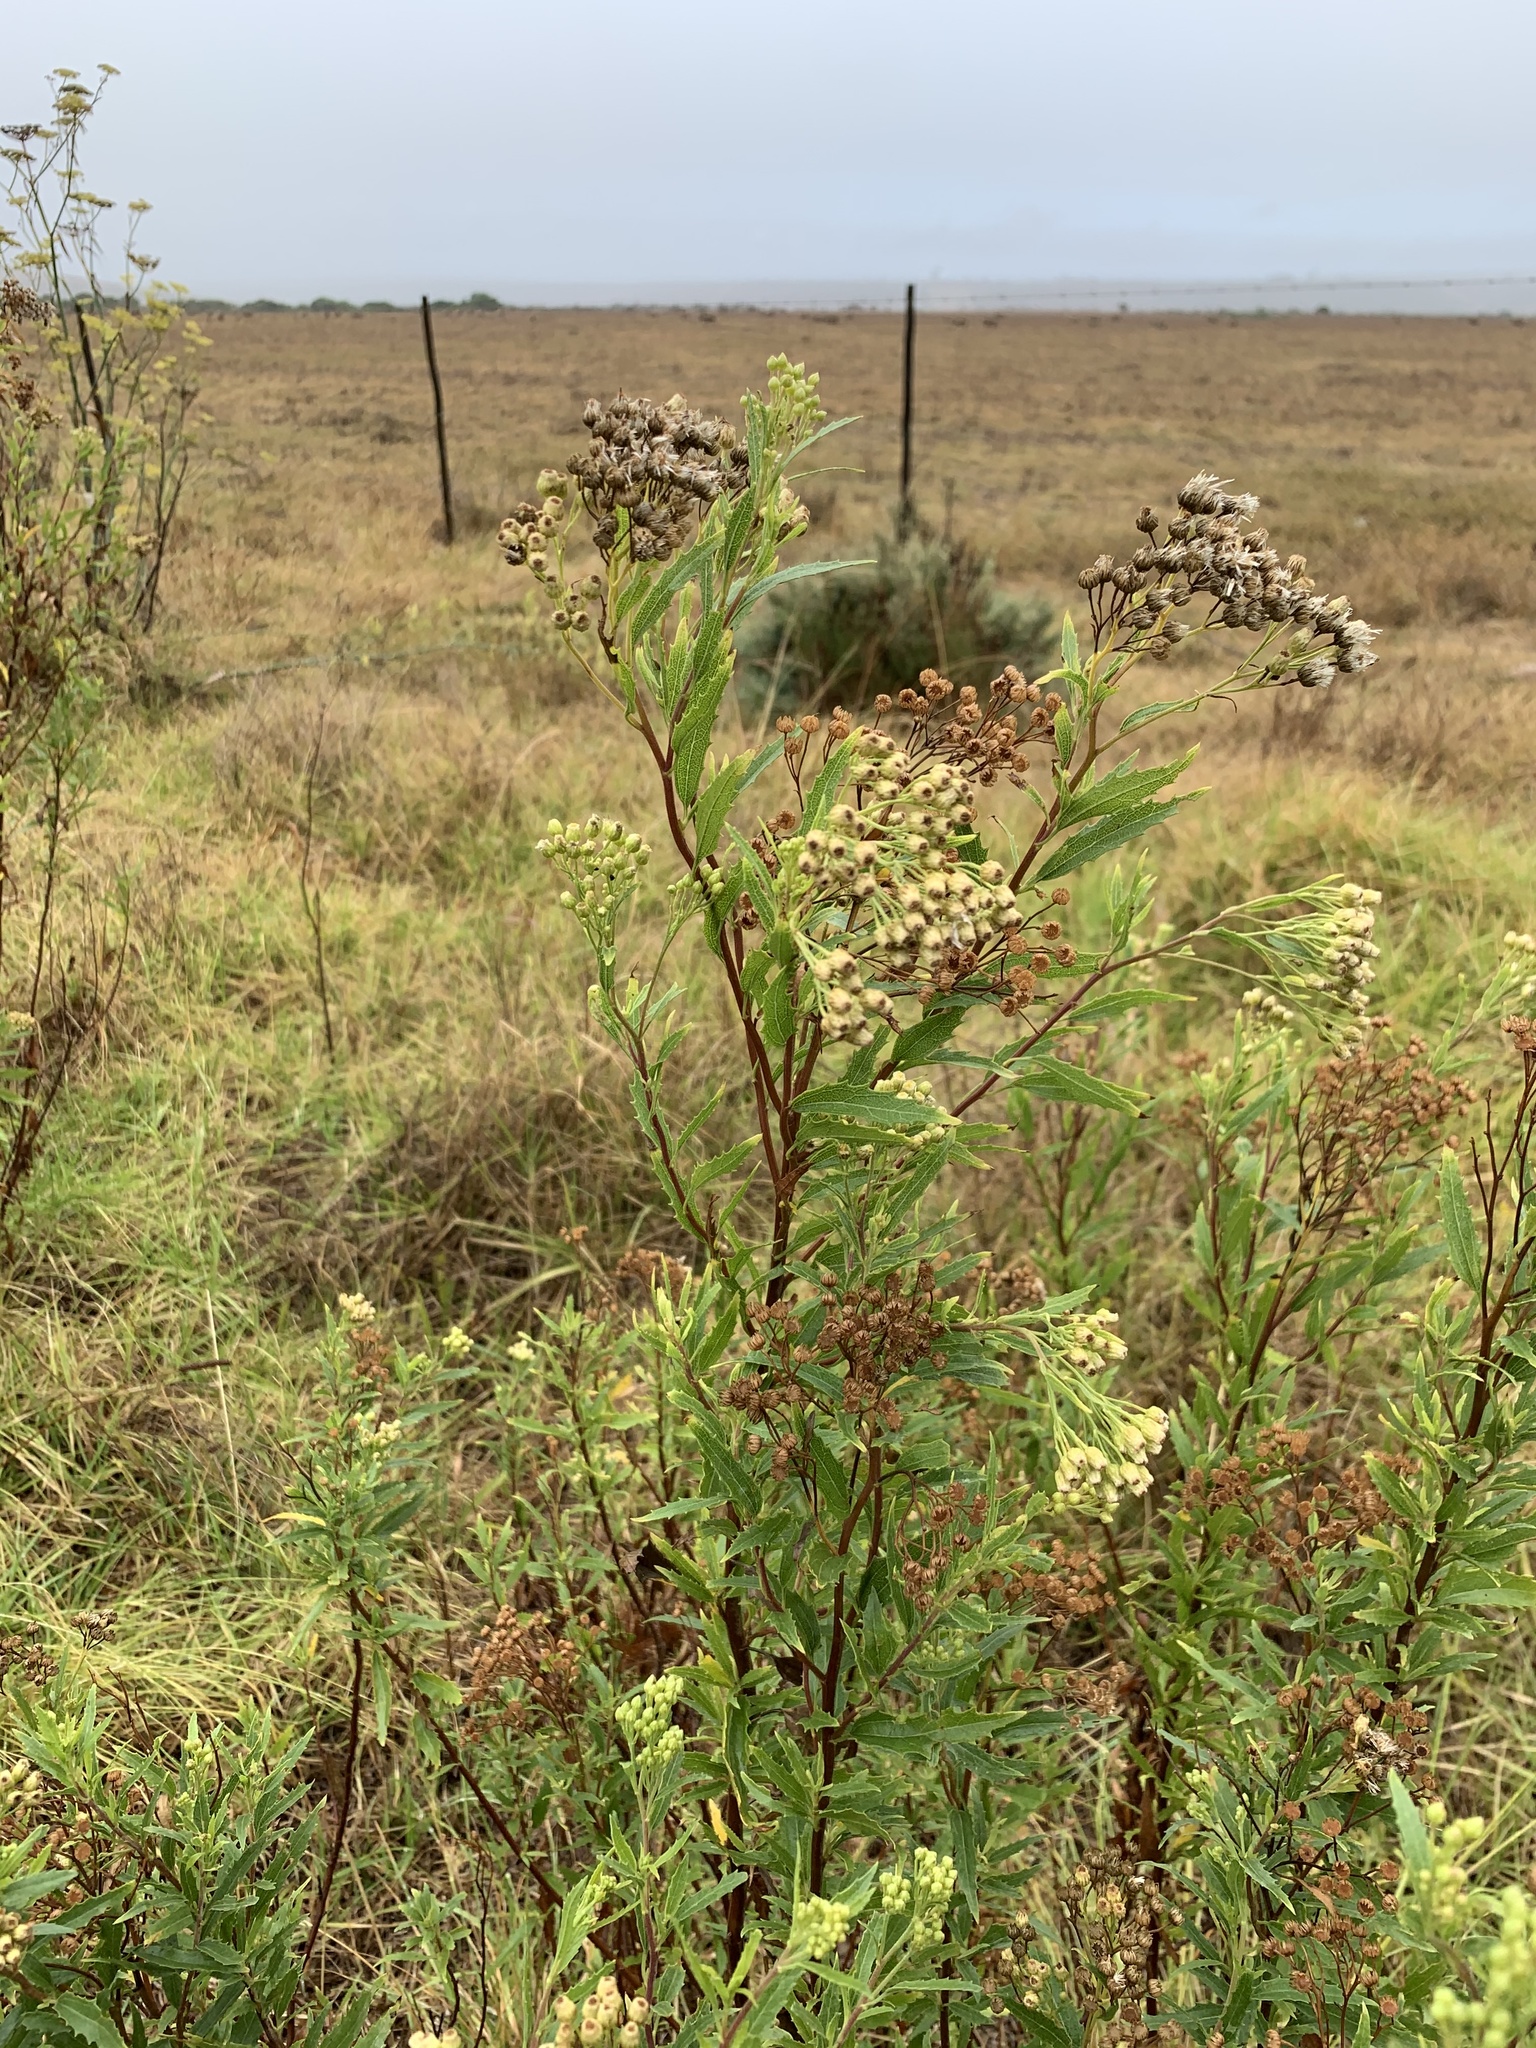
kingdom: Plantae
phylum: Tracheophyta
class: Magnoliopsida
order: Asterales
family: Asteraceae
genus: Nidorella
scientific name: Nidorella ivifolia
